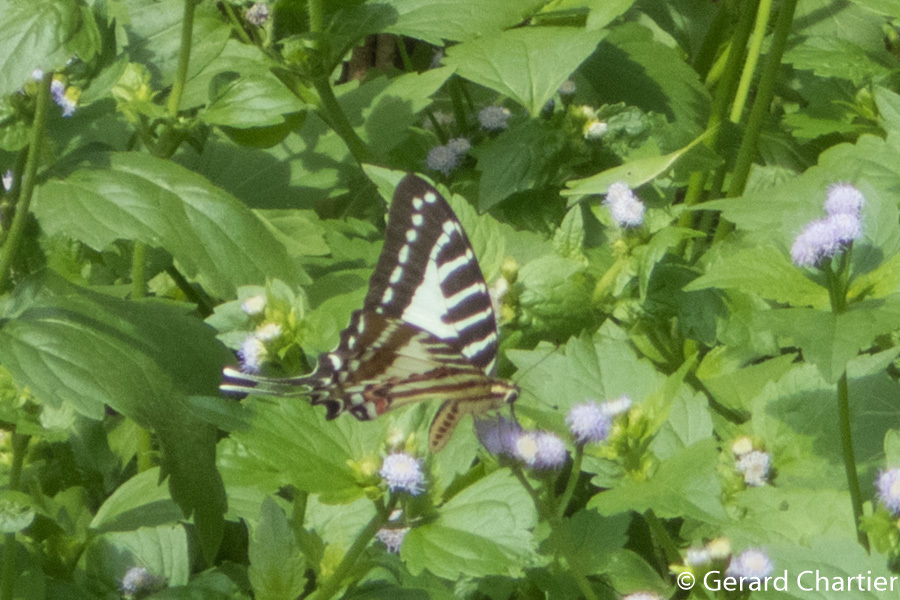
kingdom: Animalia
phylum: Arthropoda
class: Insecta
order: Lepidoptera
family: Papilionidae
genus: Graphium
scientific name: Graphium nomius
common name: Spot swordtail
